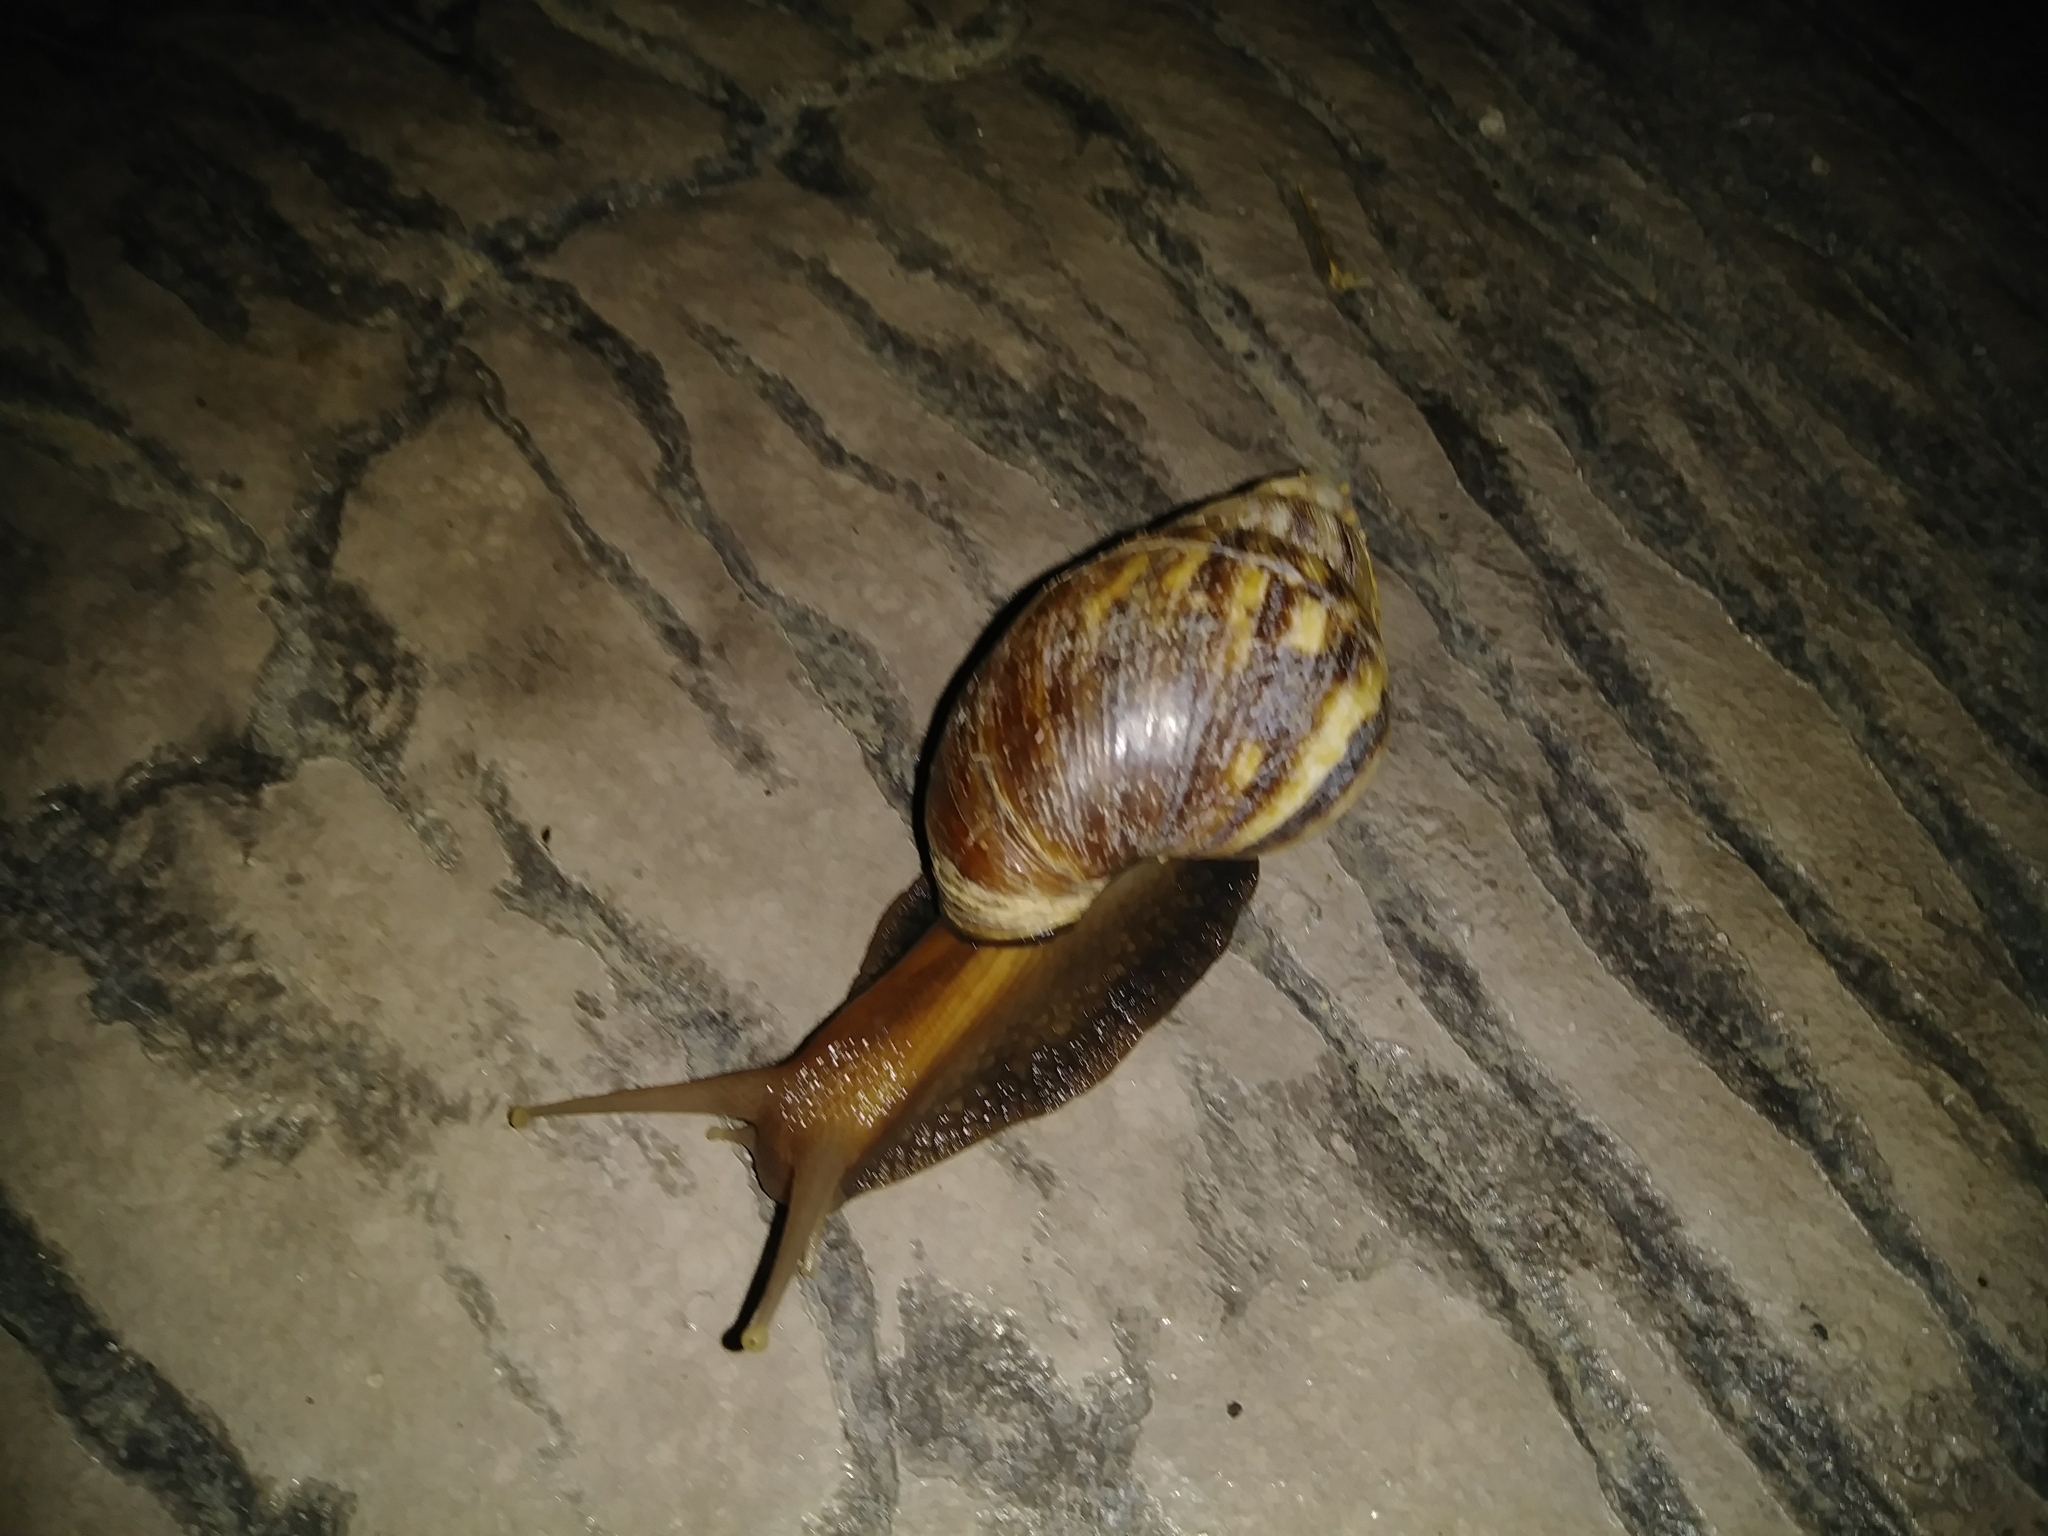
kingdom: Animalia
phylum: Mollusca
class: Gastropoda
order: Stylommatophora
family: Achatinidae
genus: Lissachatina
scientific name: Lissachatina fulica
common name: Giant african snail
